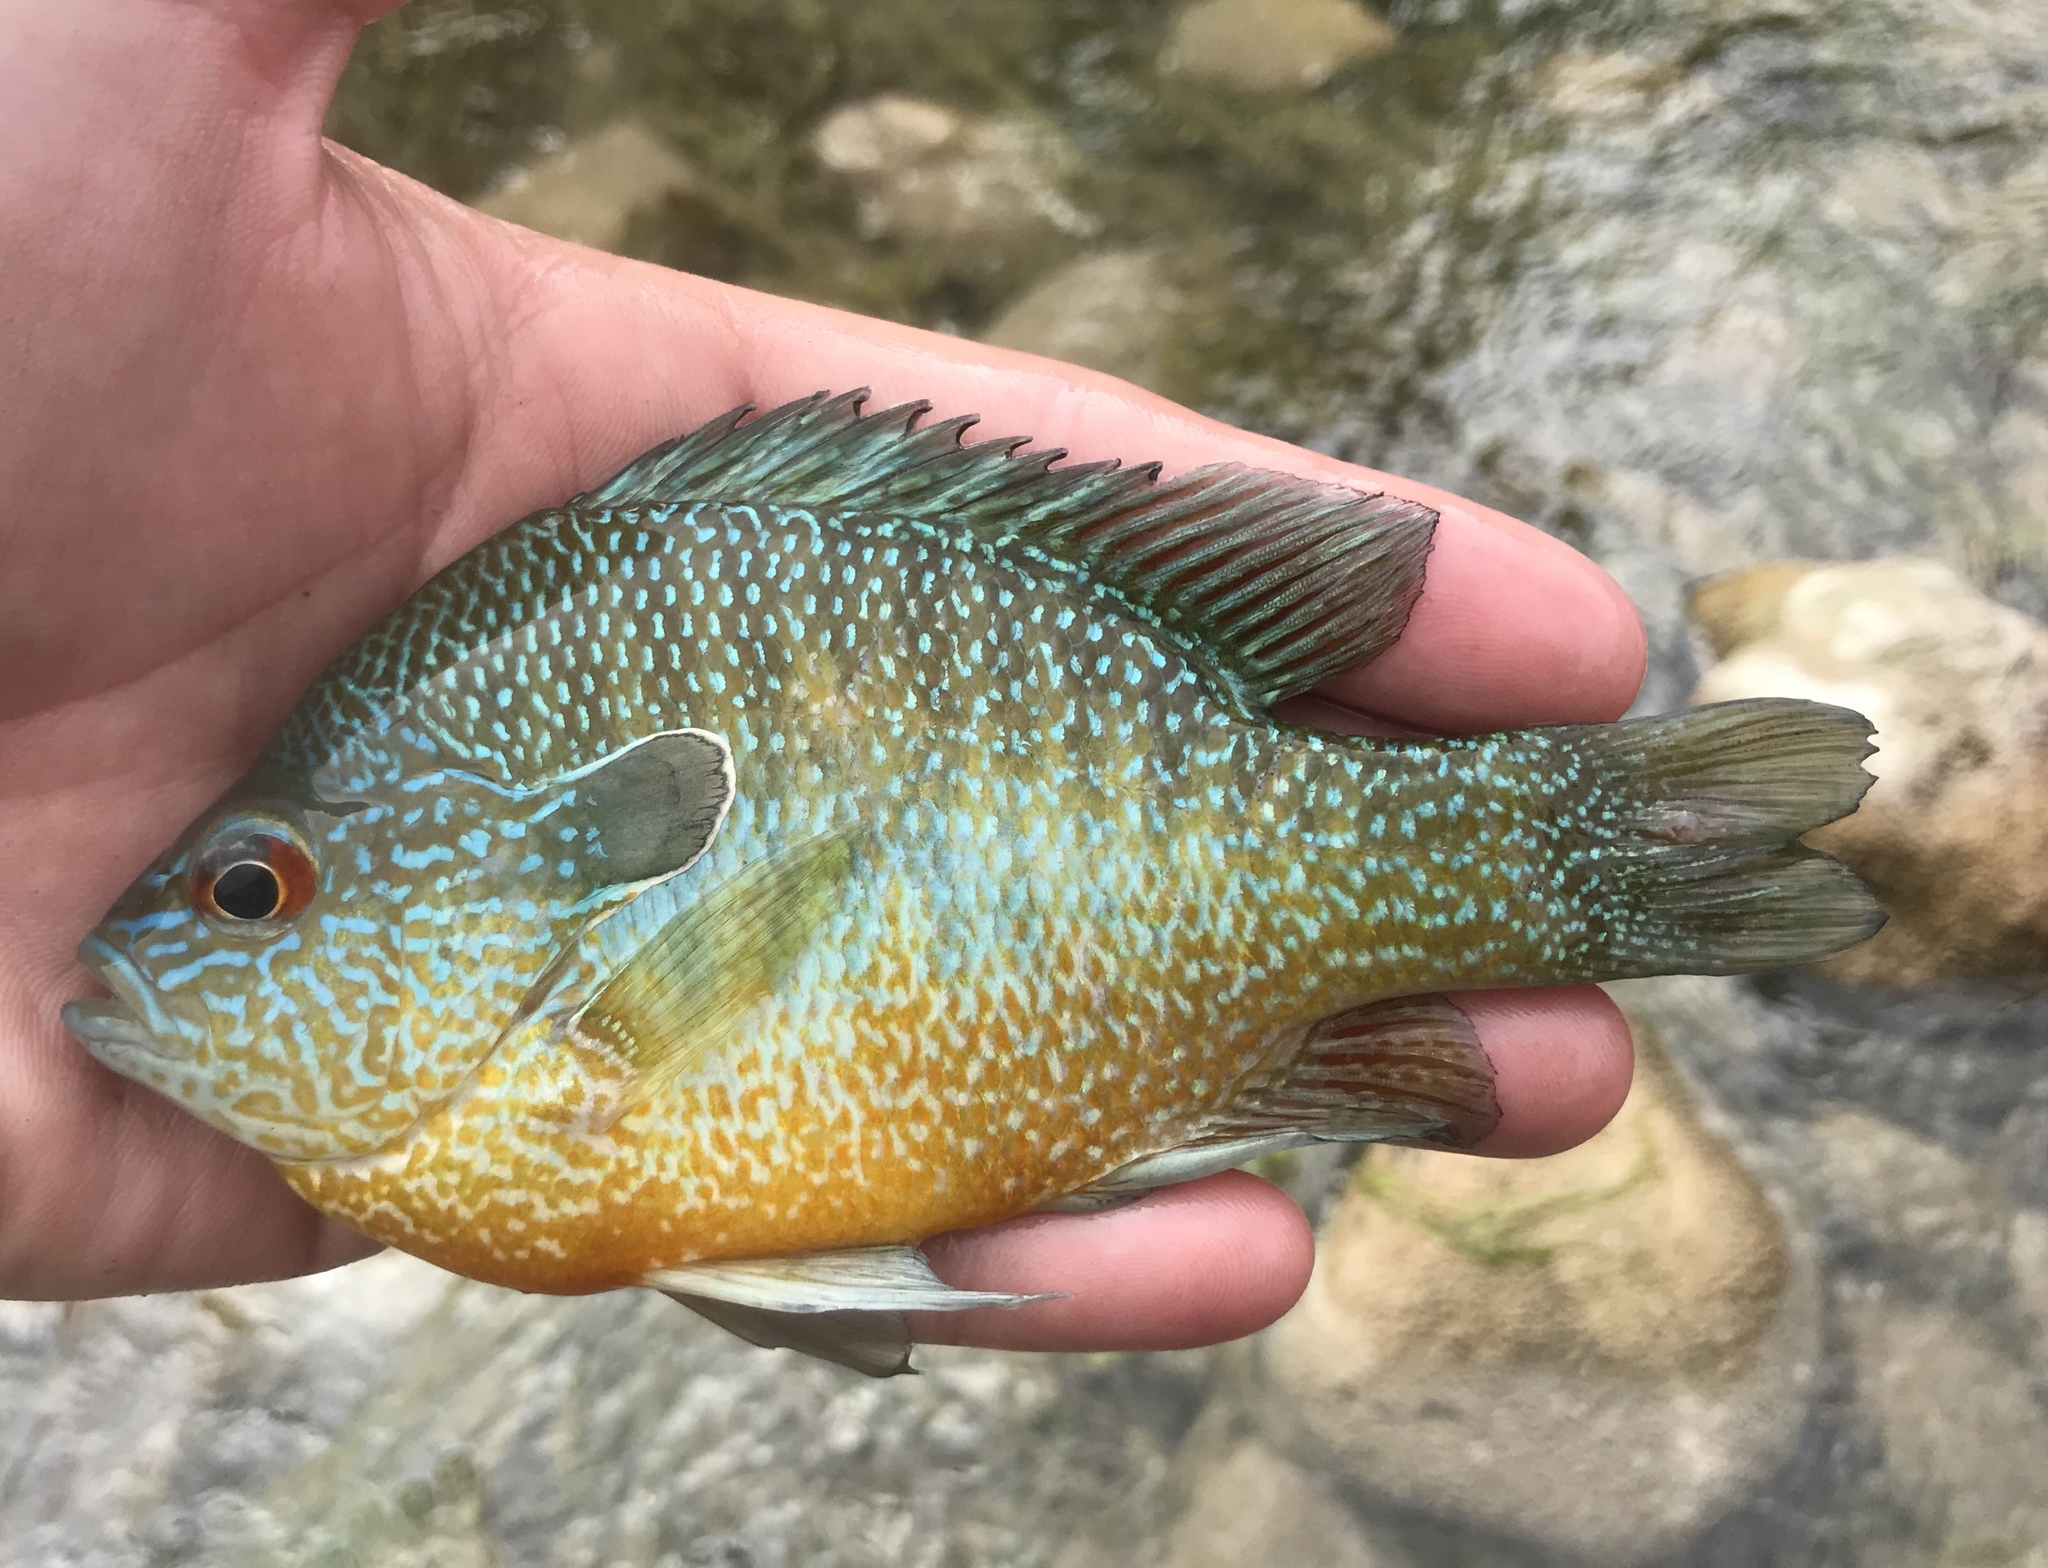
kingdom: Animalia
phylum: Chordata
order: Perciformes
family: Centrarchidae
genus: Lepomis
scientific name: Lepomis megalotis
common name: Longear sunfish
